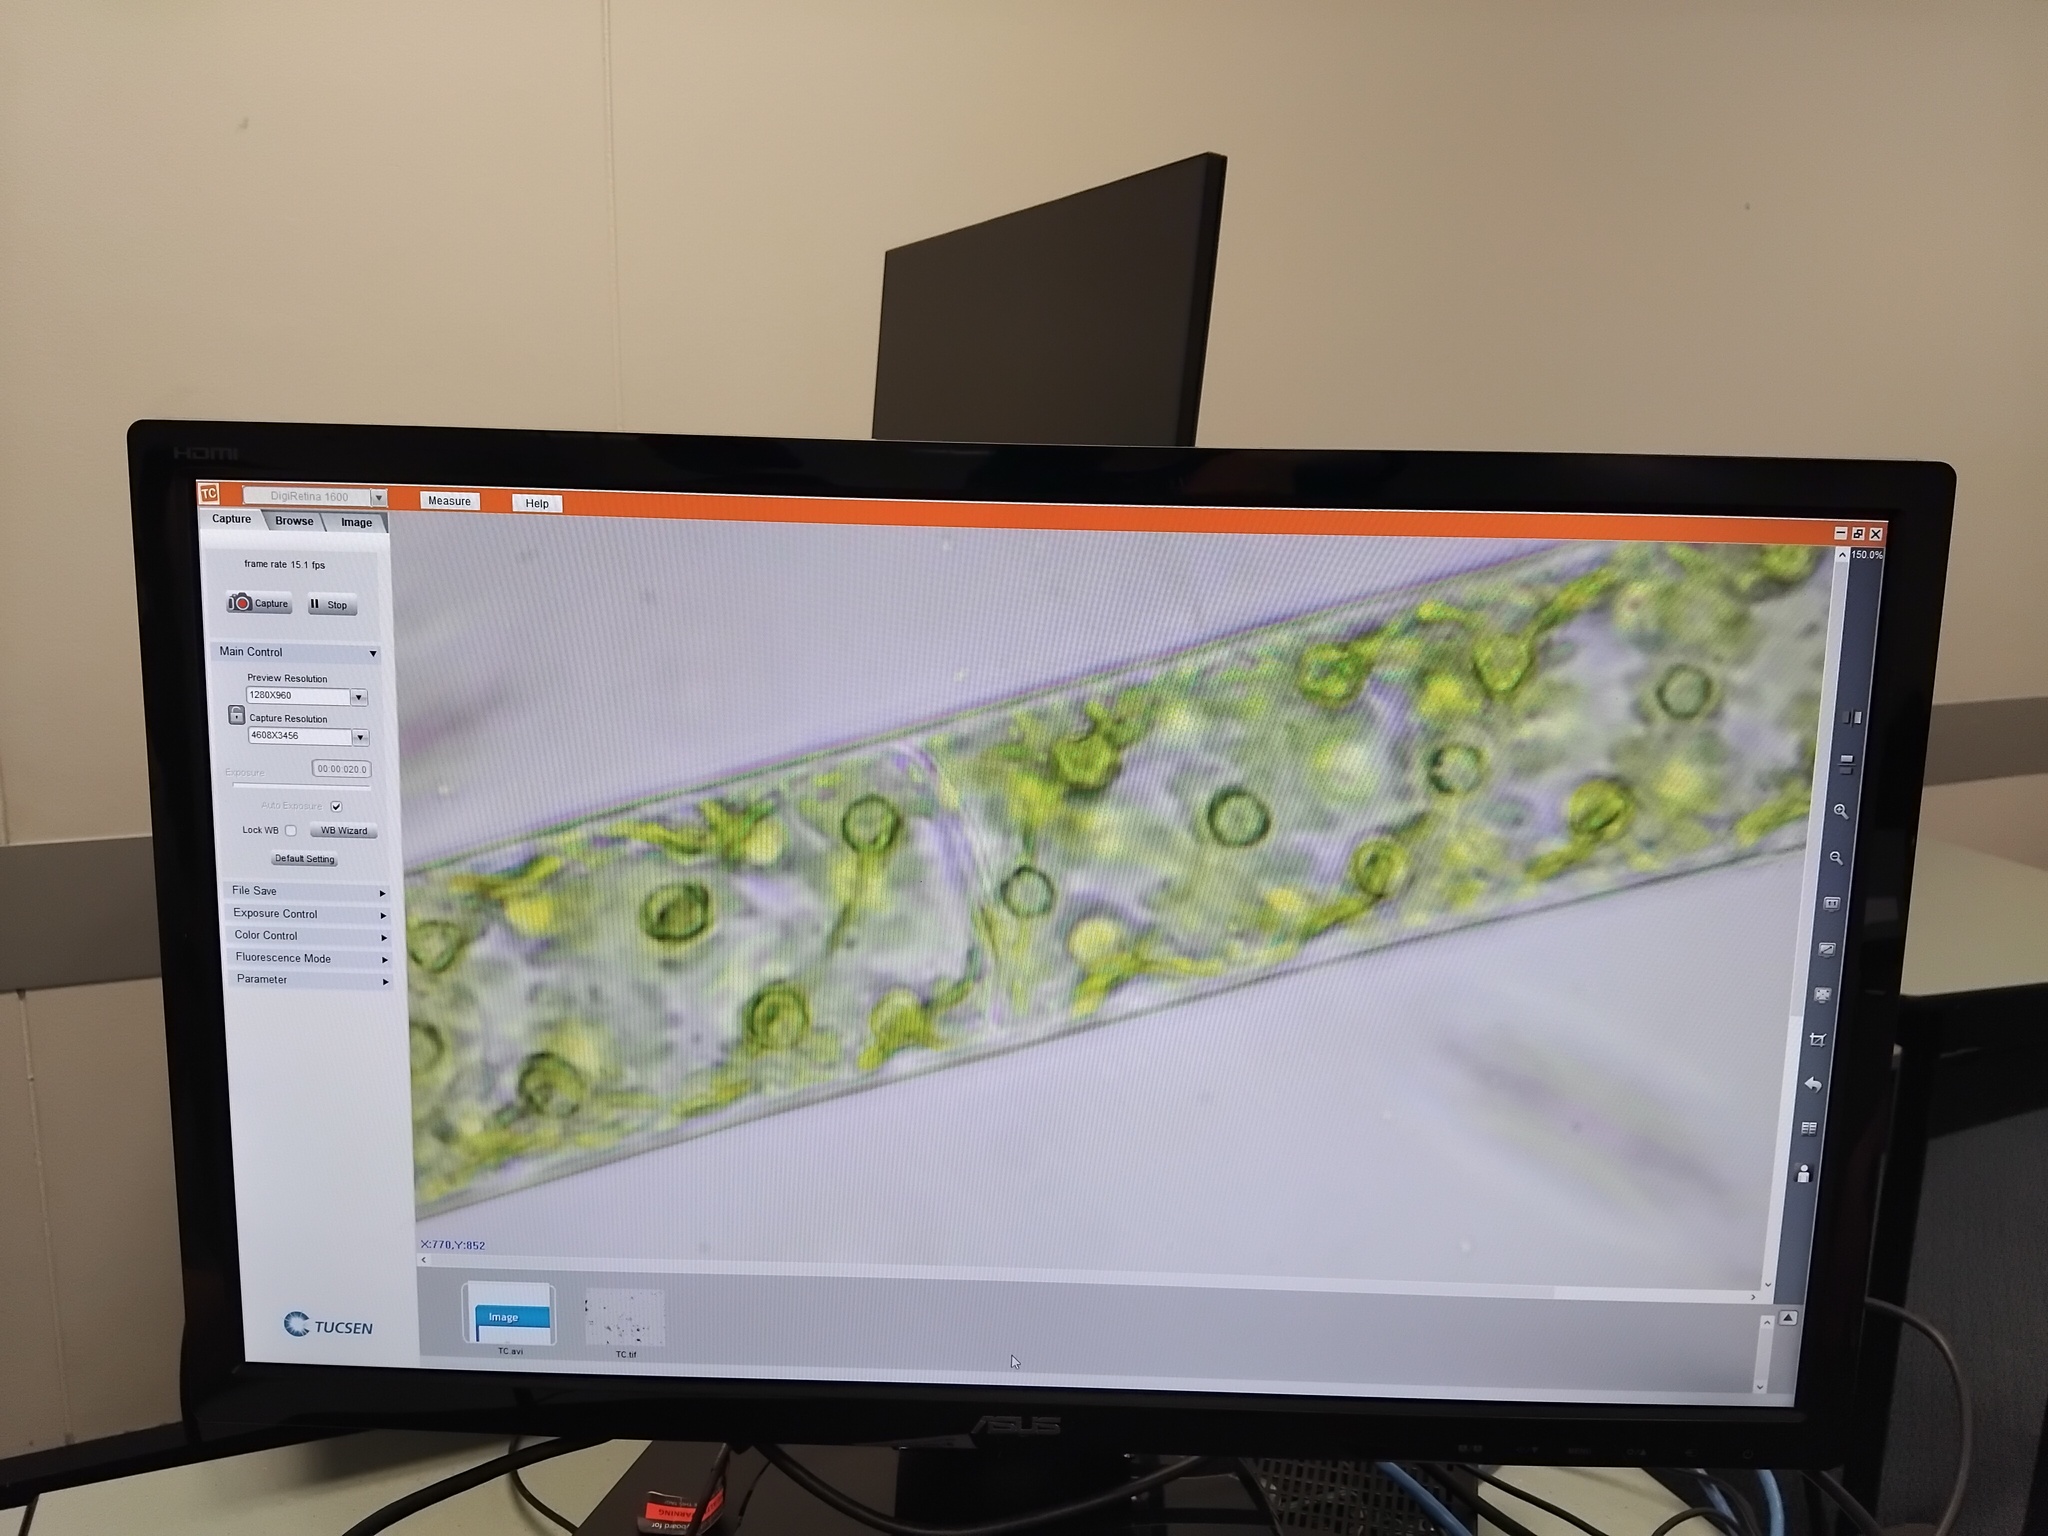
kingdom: Plantae
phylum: Charophyta
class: Zygnematophyceae
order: Zygnematales
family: Zygnemataceae
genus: Spirogyra
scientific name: Spirogyra
